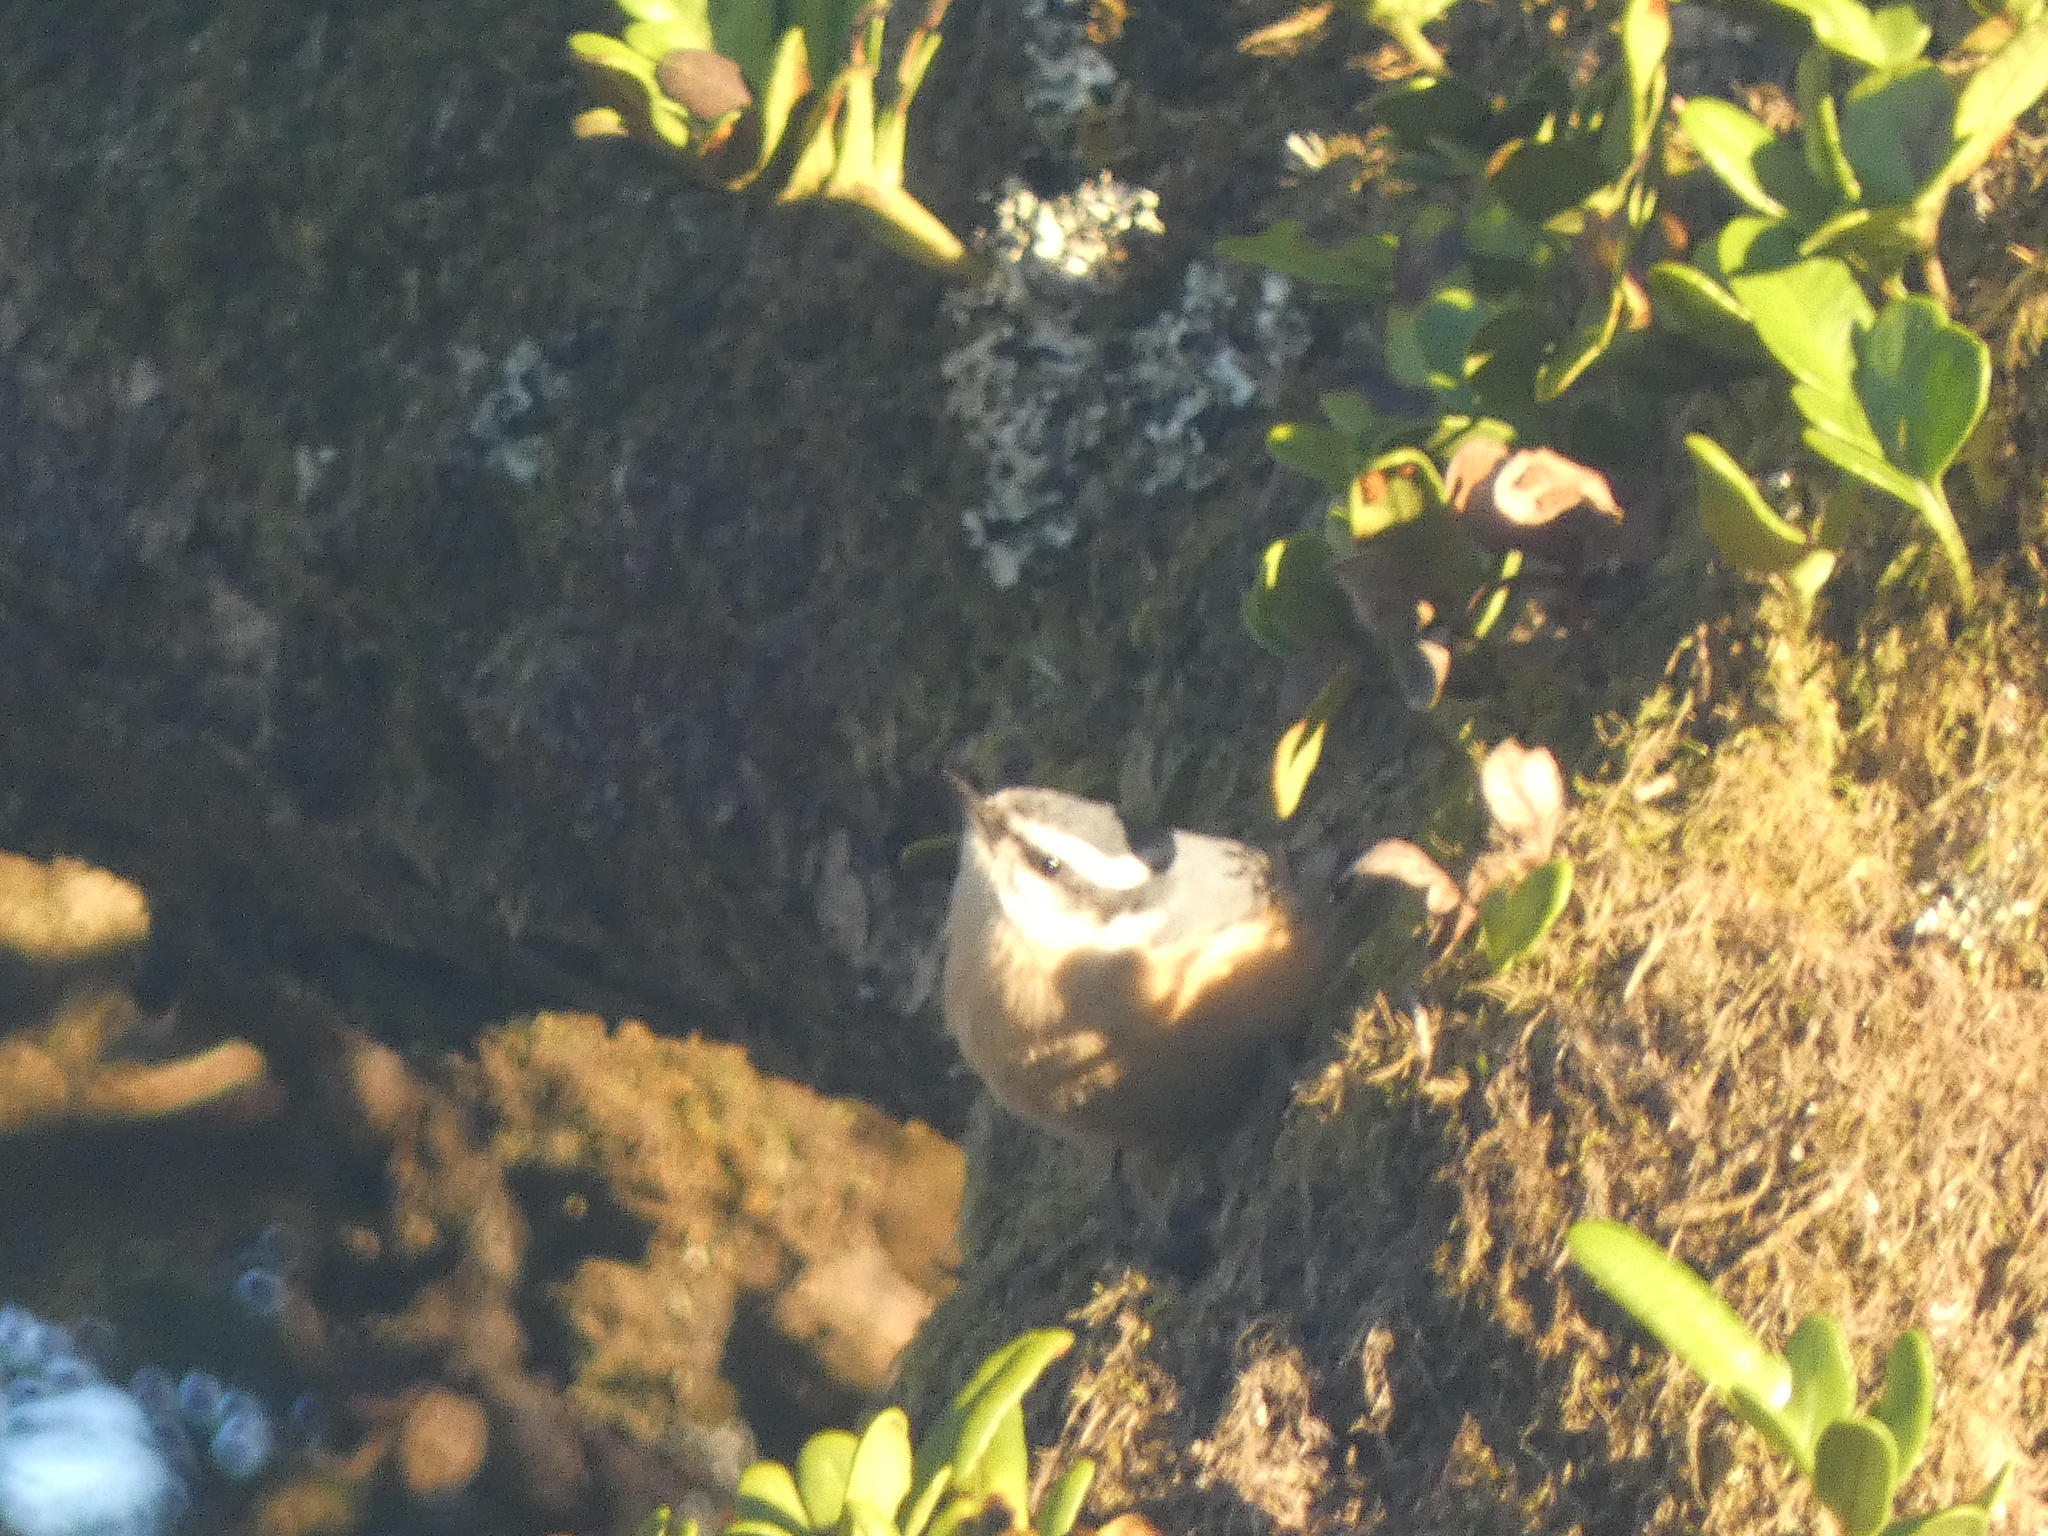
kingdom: Animalia
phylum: Chordata
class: Aves
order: Passeriformes
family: Sittidae
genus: Sitta
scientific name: Sitta canadensis
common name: Red-breasted nuthatch
